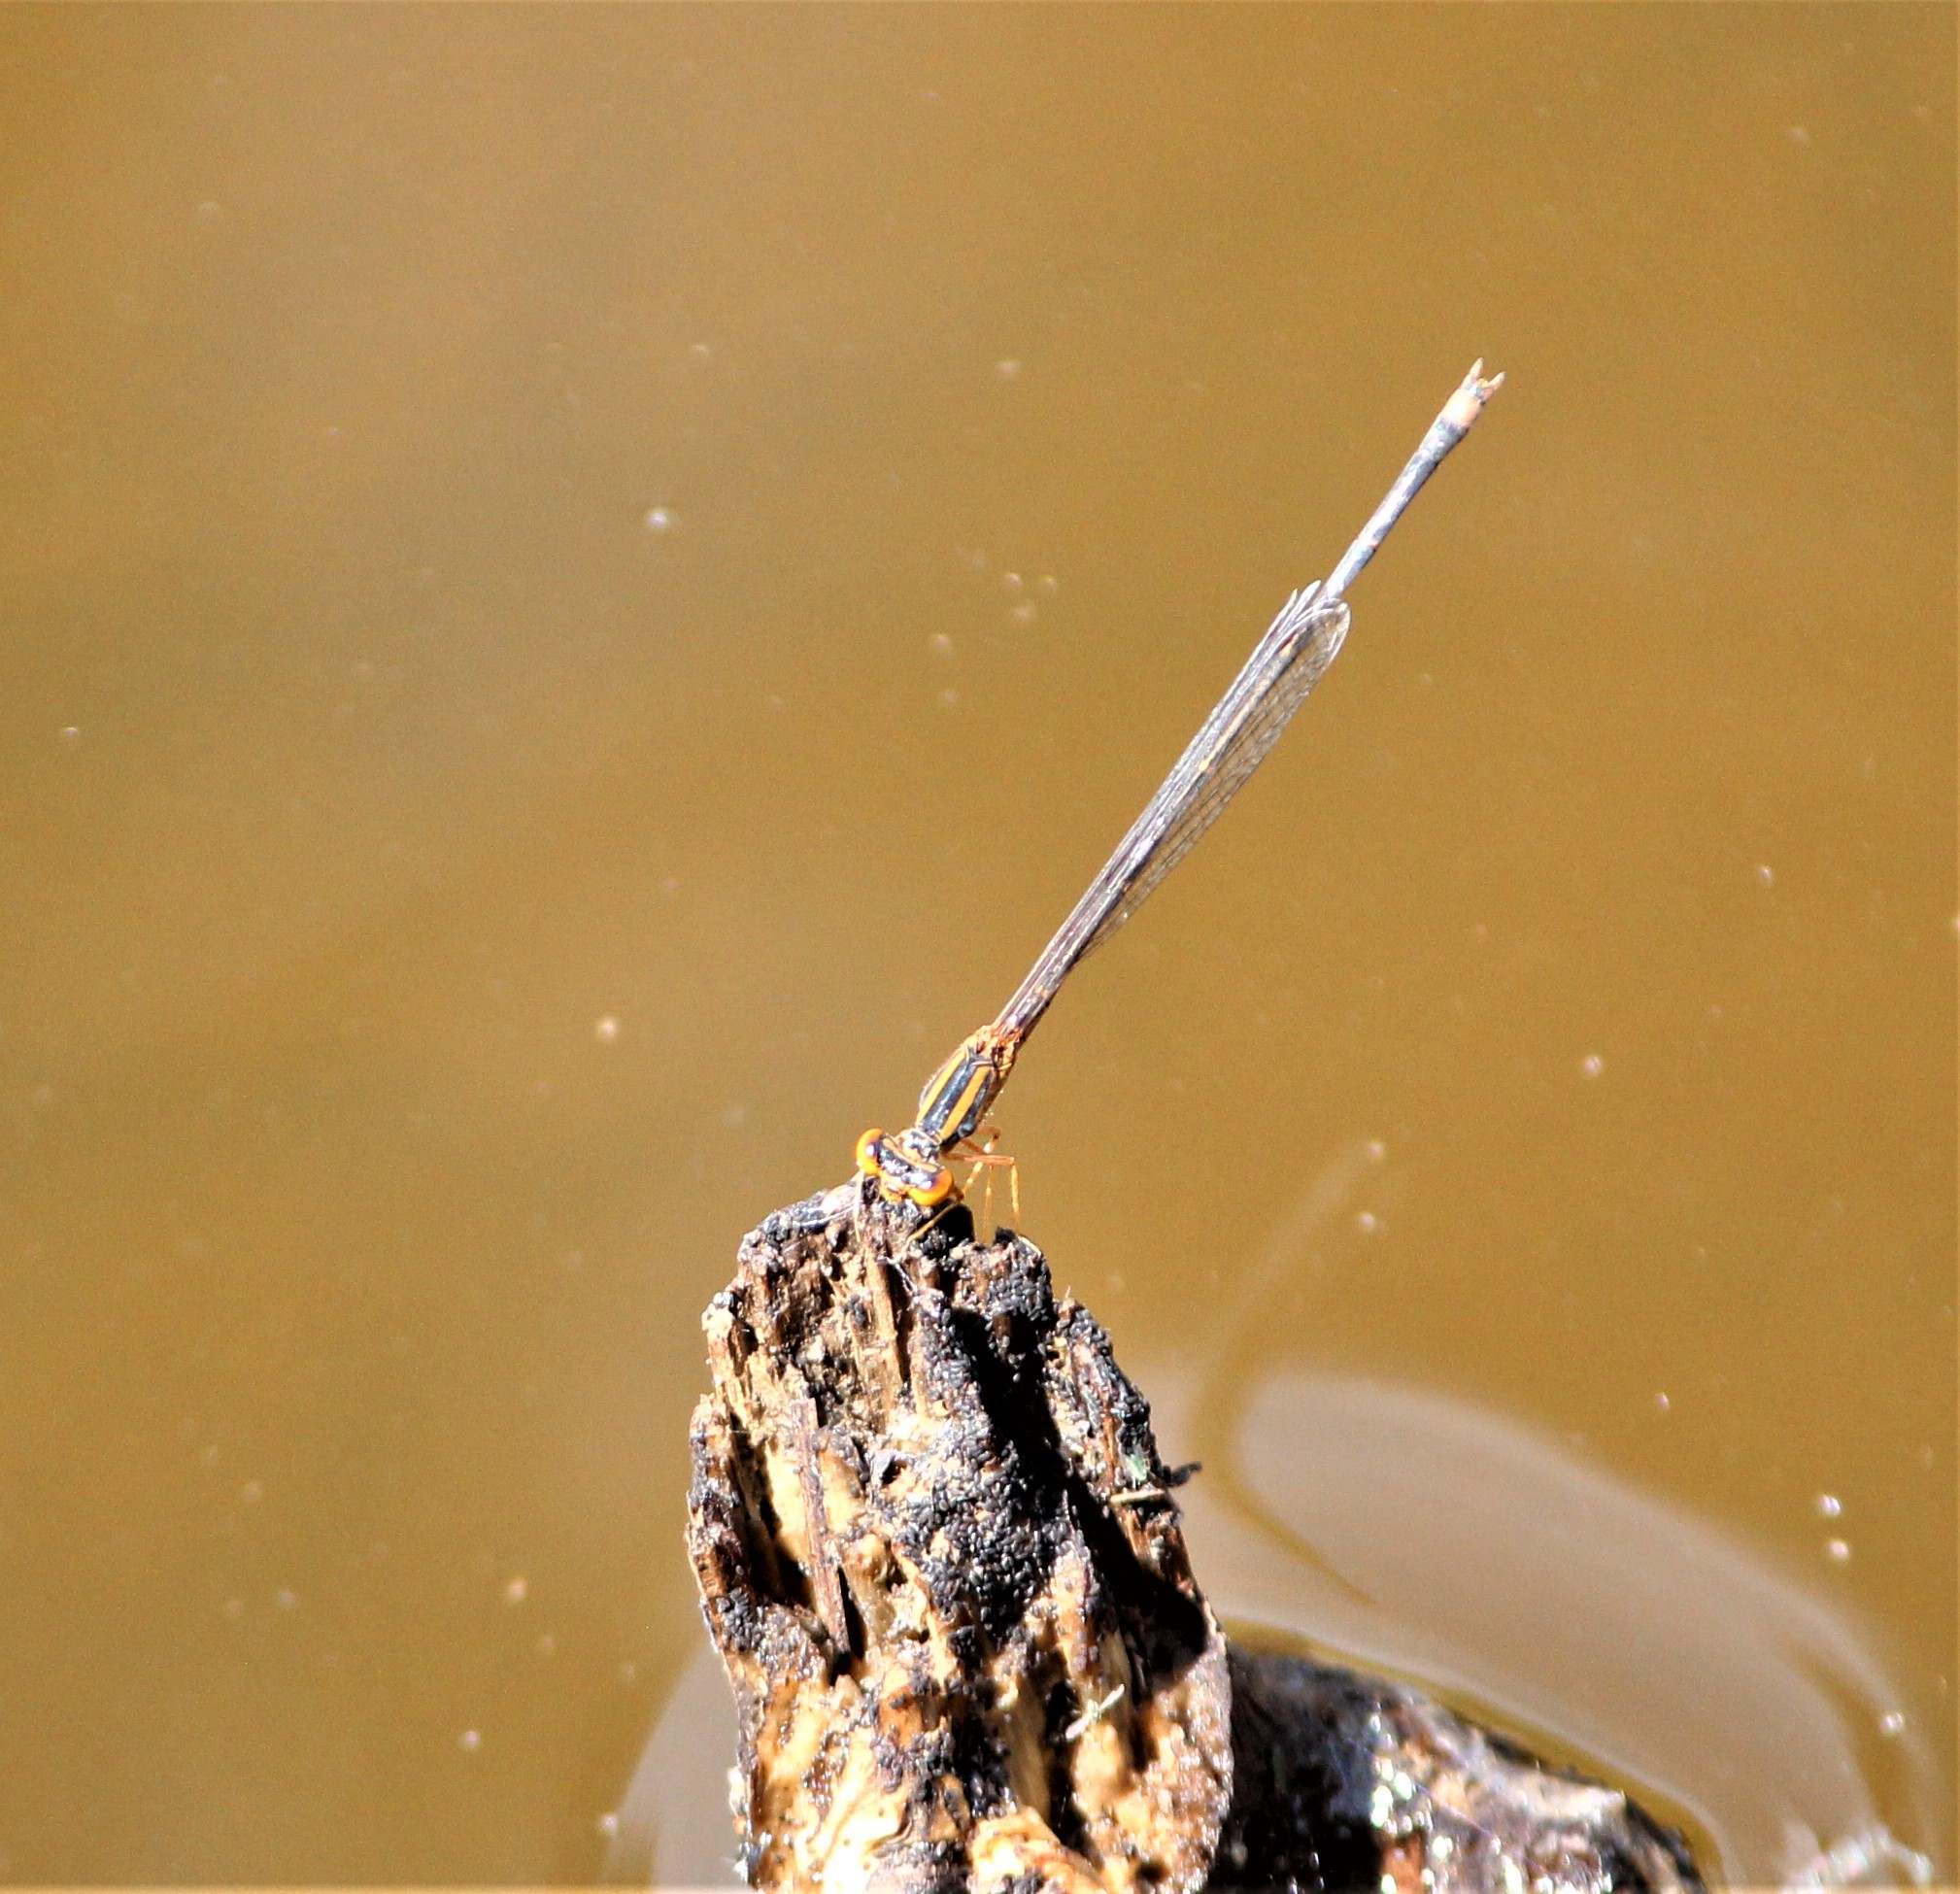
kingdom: Animalia
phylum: Arthropoda
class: Insecta
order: Odonata
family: Coenagrionidae
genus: Enallagma
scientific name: Enallagma signatum
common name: Orange bluet
